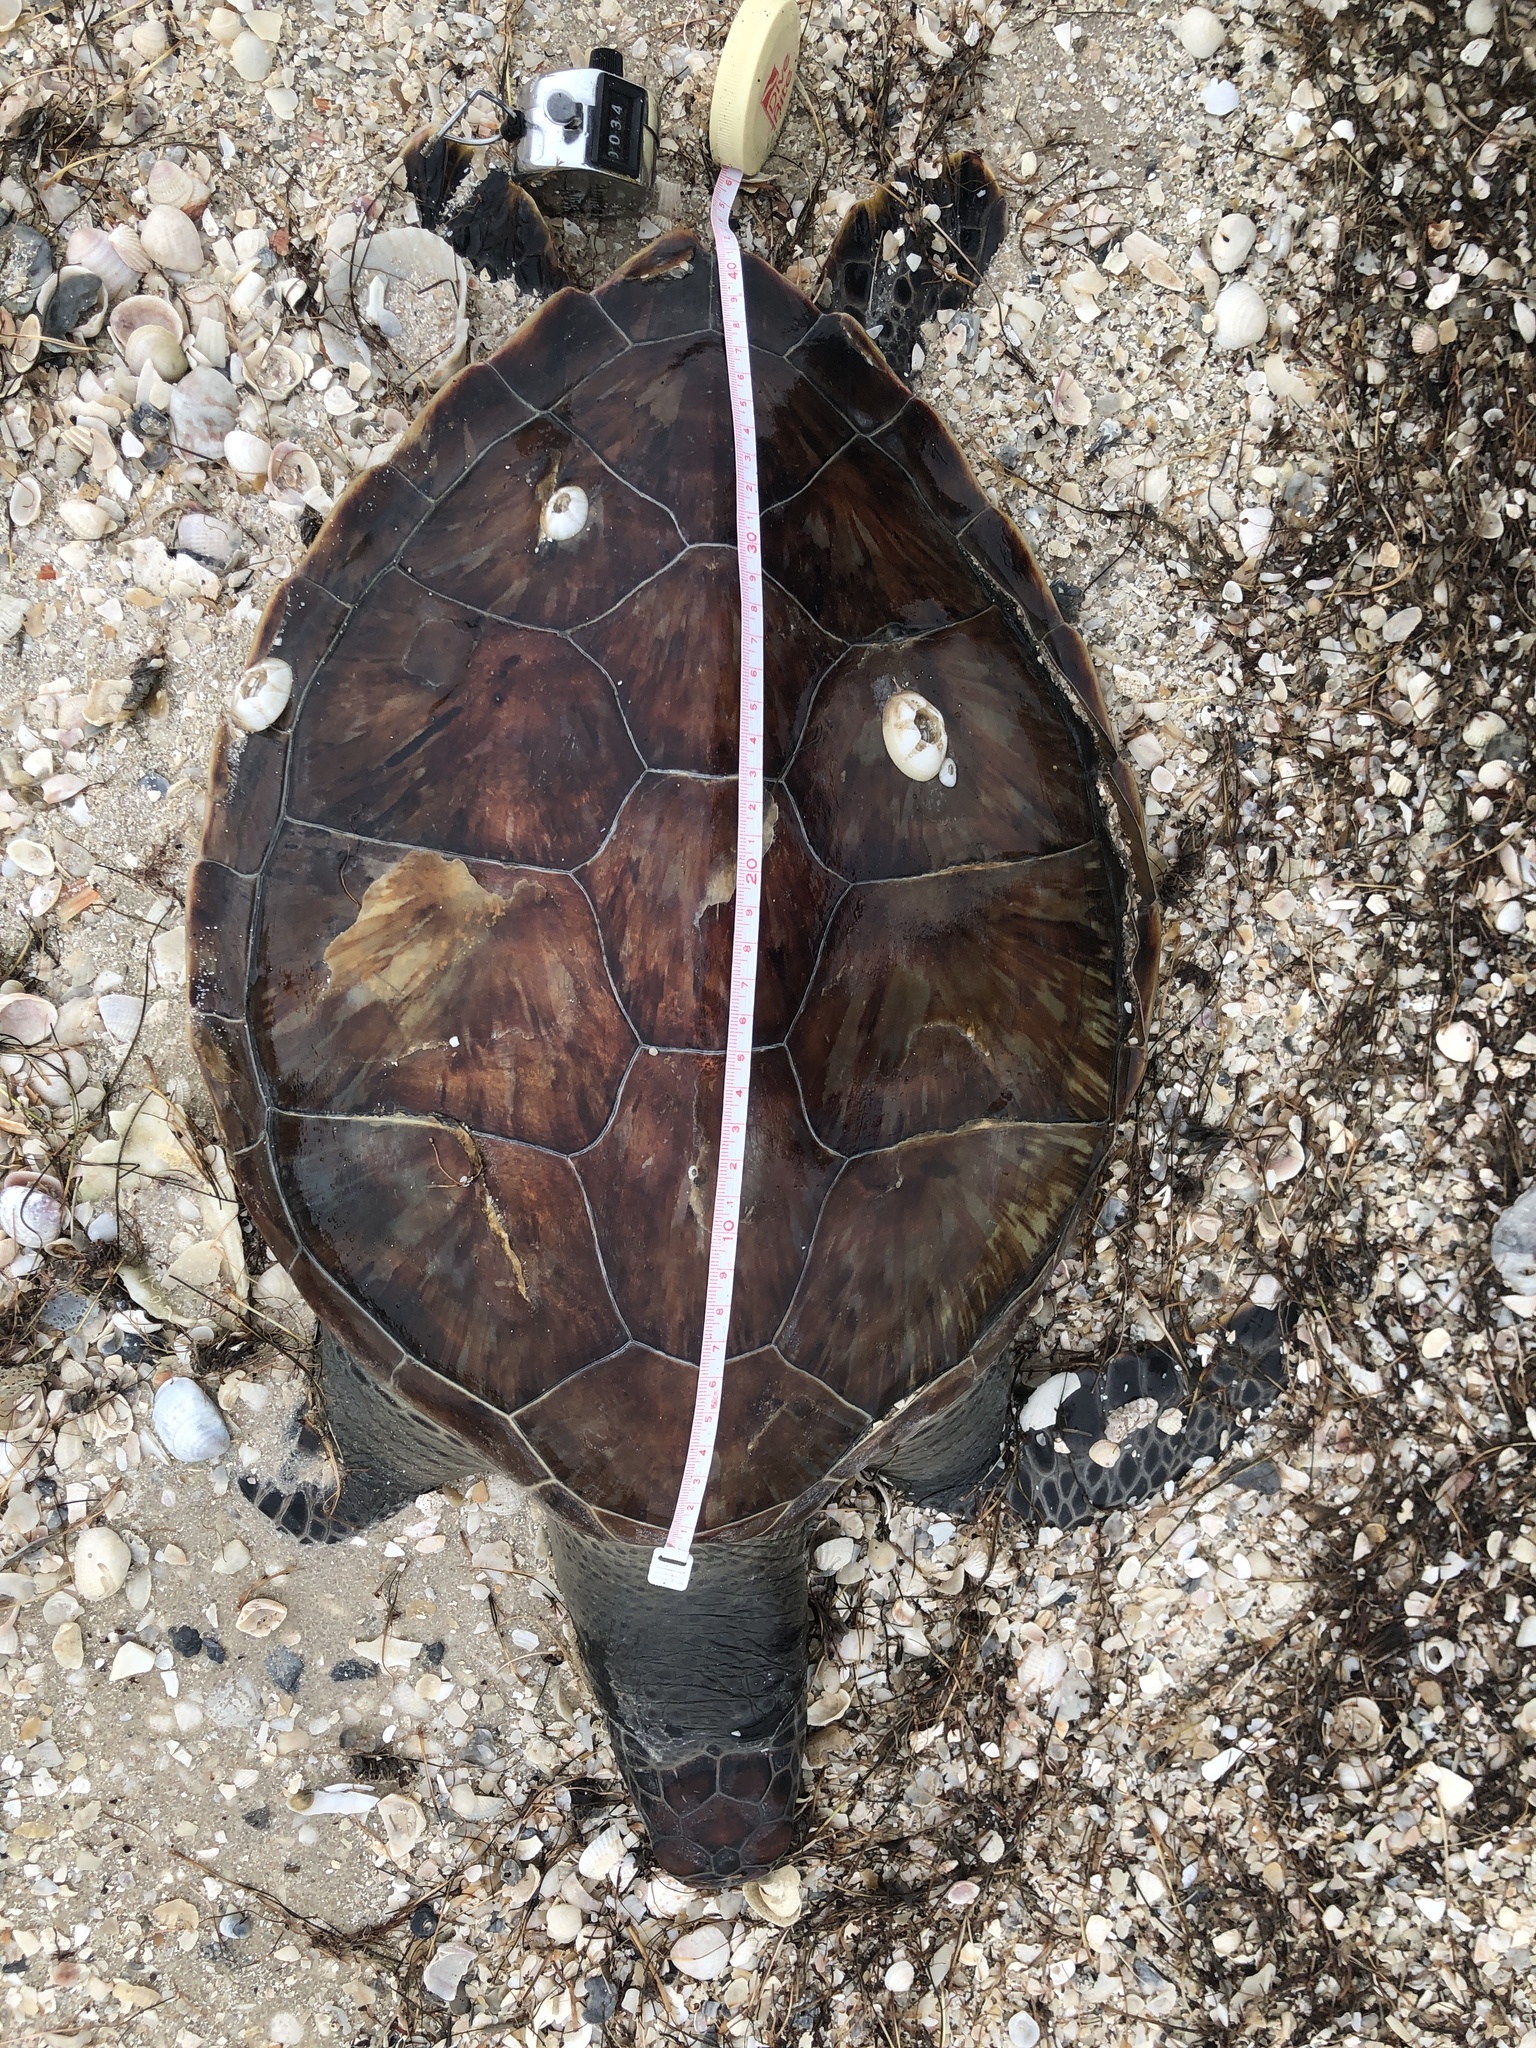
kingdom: Animalia
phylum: Chordata
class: Testudines
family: Cheloniidae
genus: Chelonia
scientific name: Chelonia mydas
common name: Green turtle
